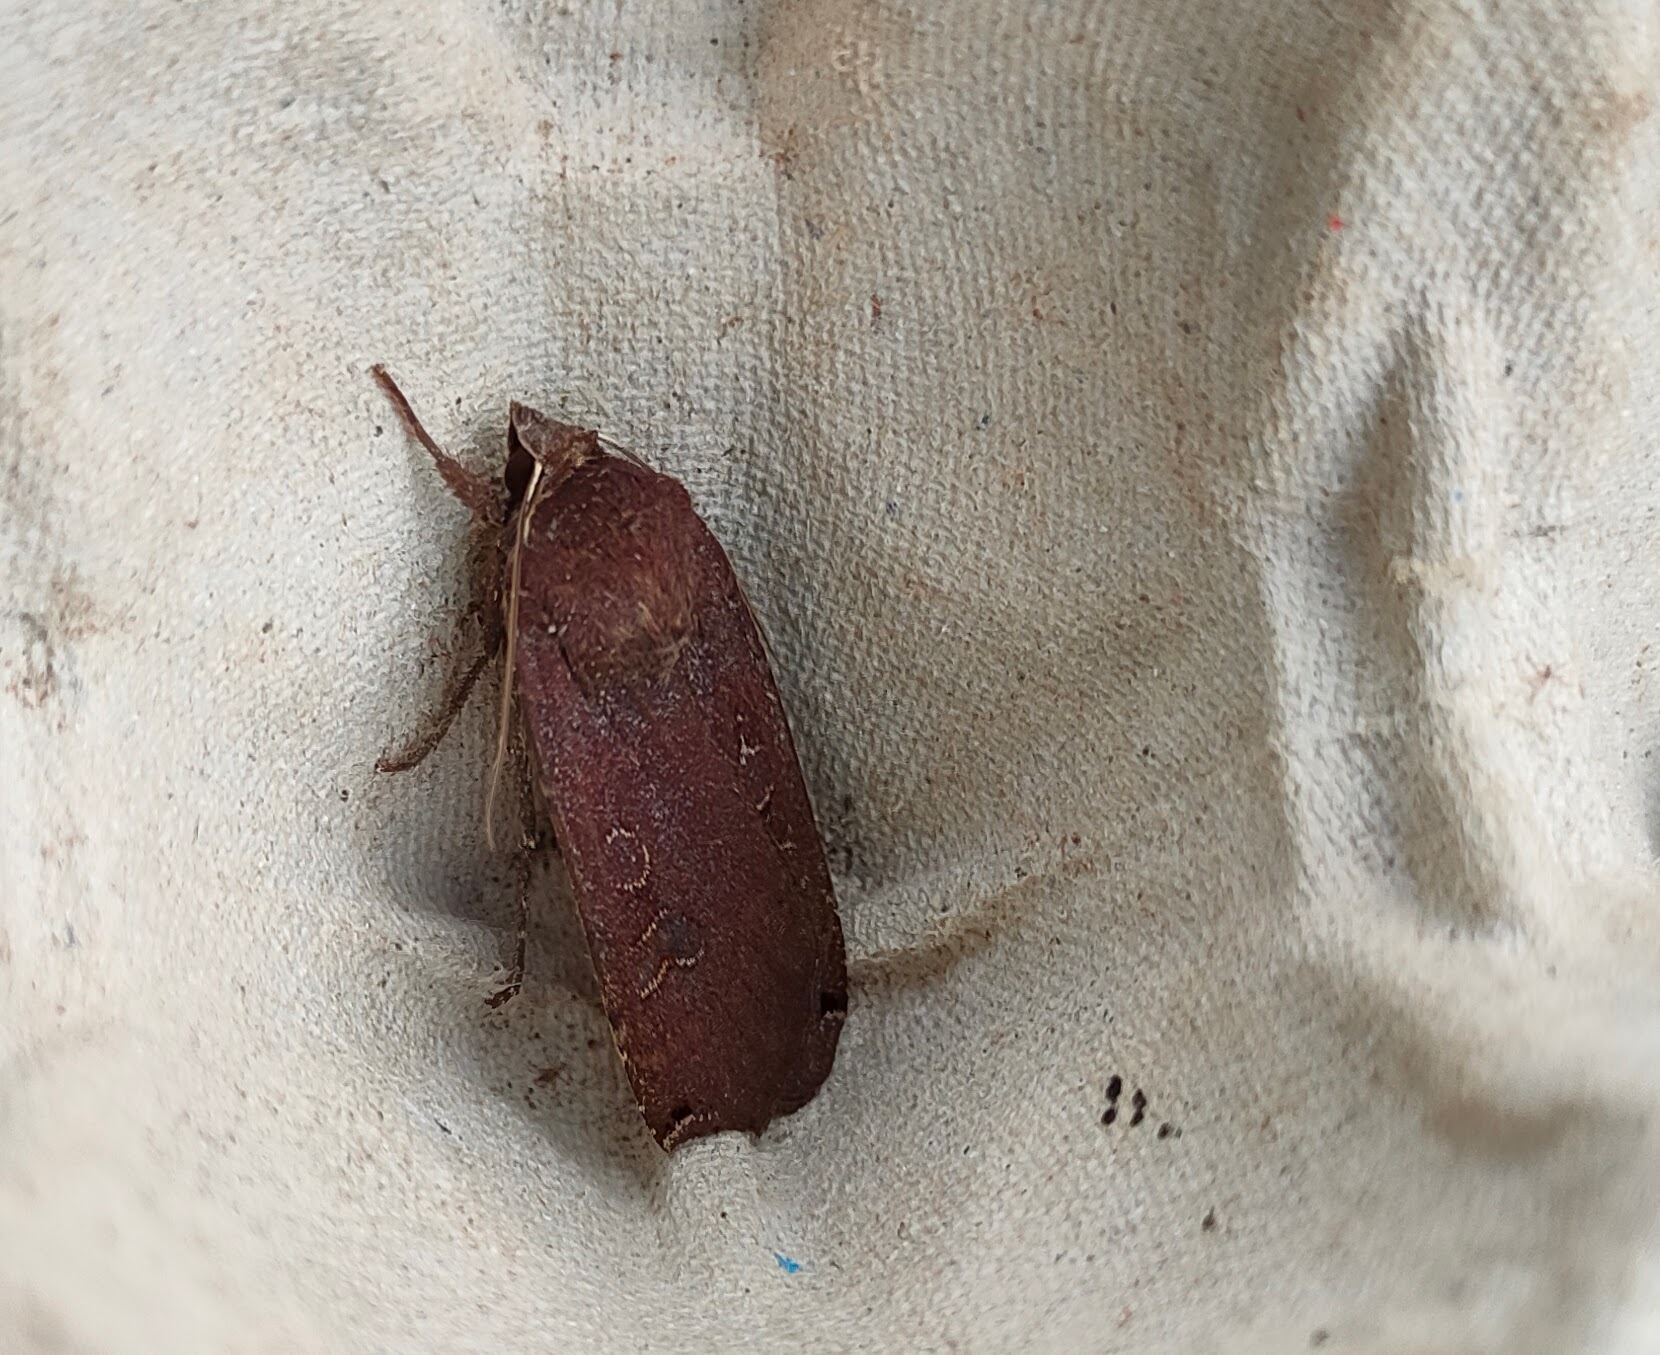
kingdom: Animalia
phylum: Arthropoda
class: Insecta
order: Lepidoptera
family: Noctuidae
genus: Noctua
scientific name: Noctua pronuba
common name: Large yellow underwing
